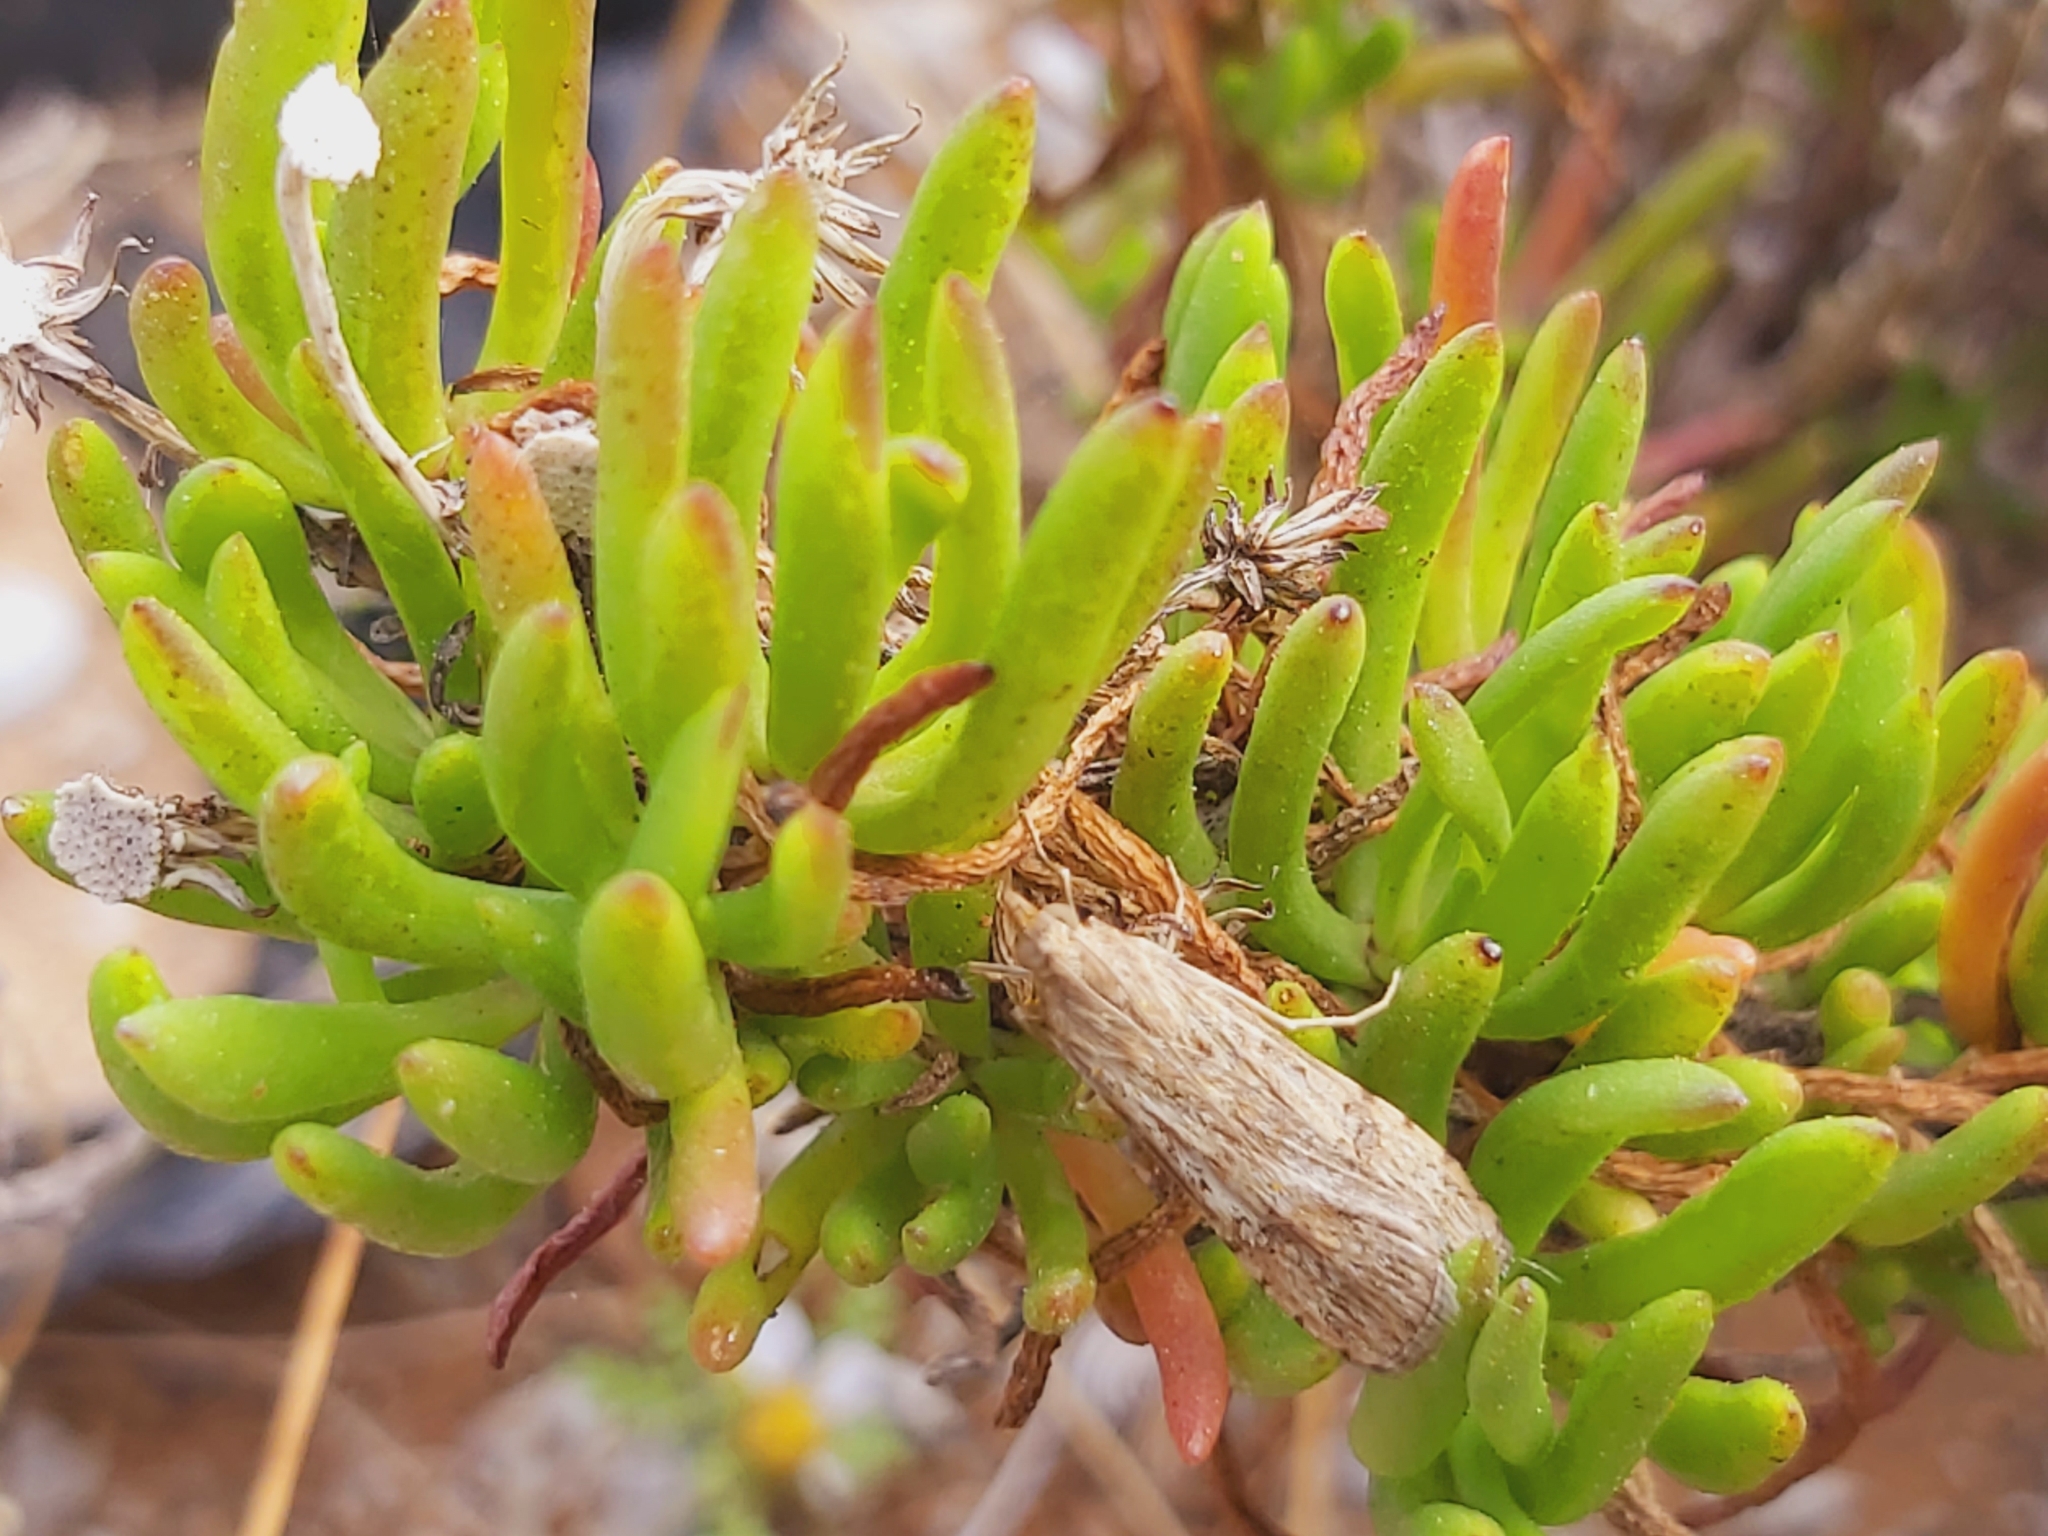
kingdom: Animalia
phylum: Arthropoda
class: Insecta
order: Lepidoptera
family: Crambidae
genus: Nomophila
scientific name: Nomophila noctuella
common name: Rush veneer
